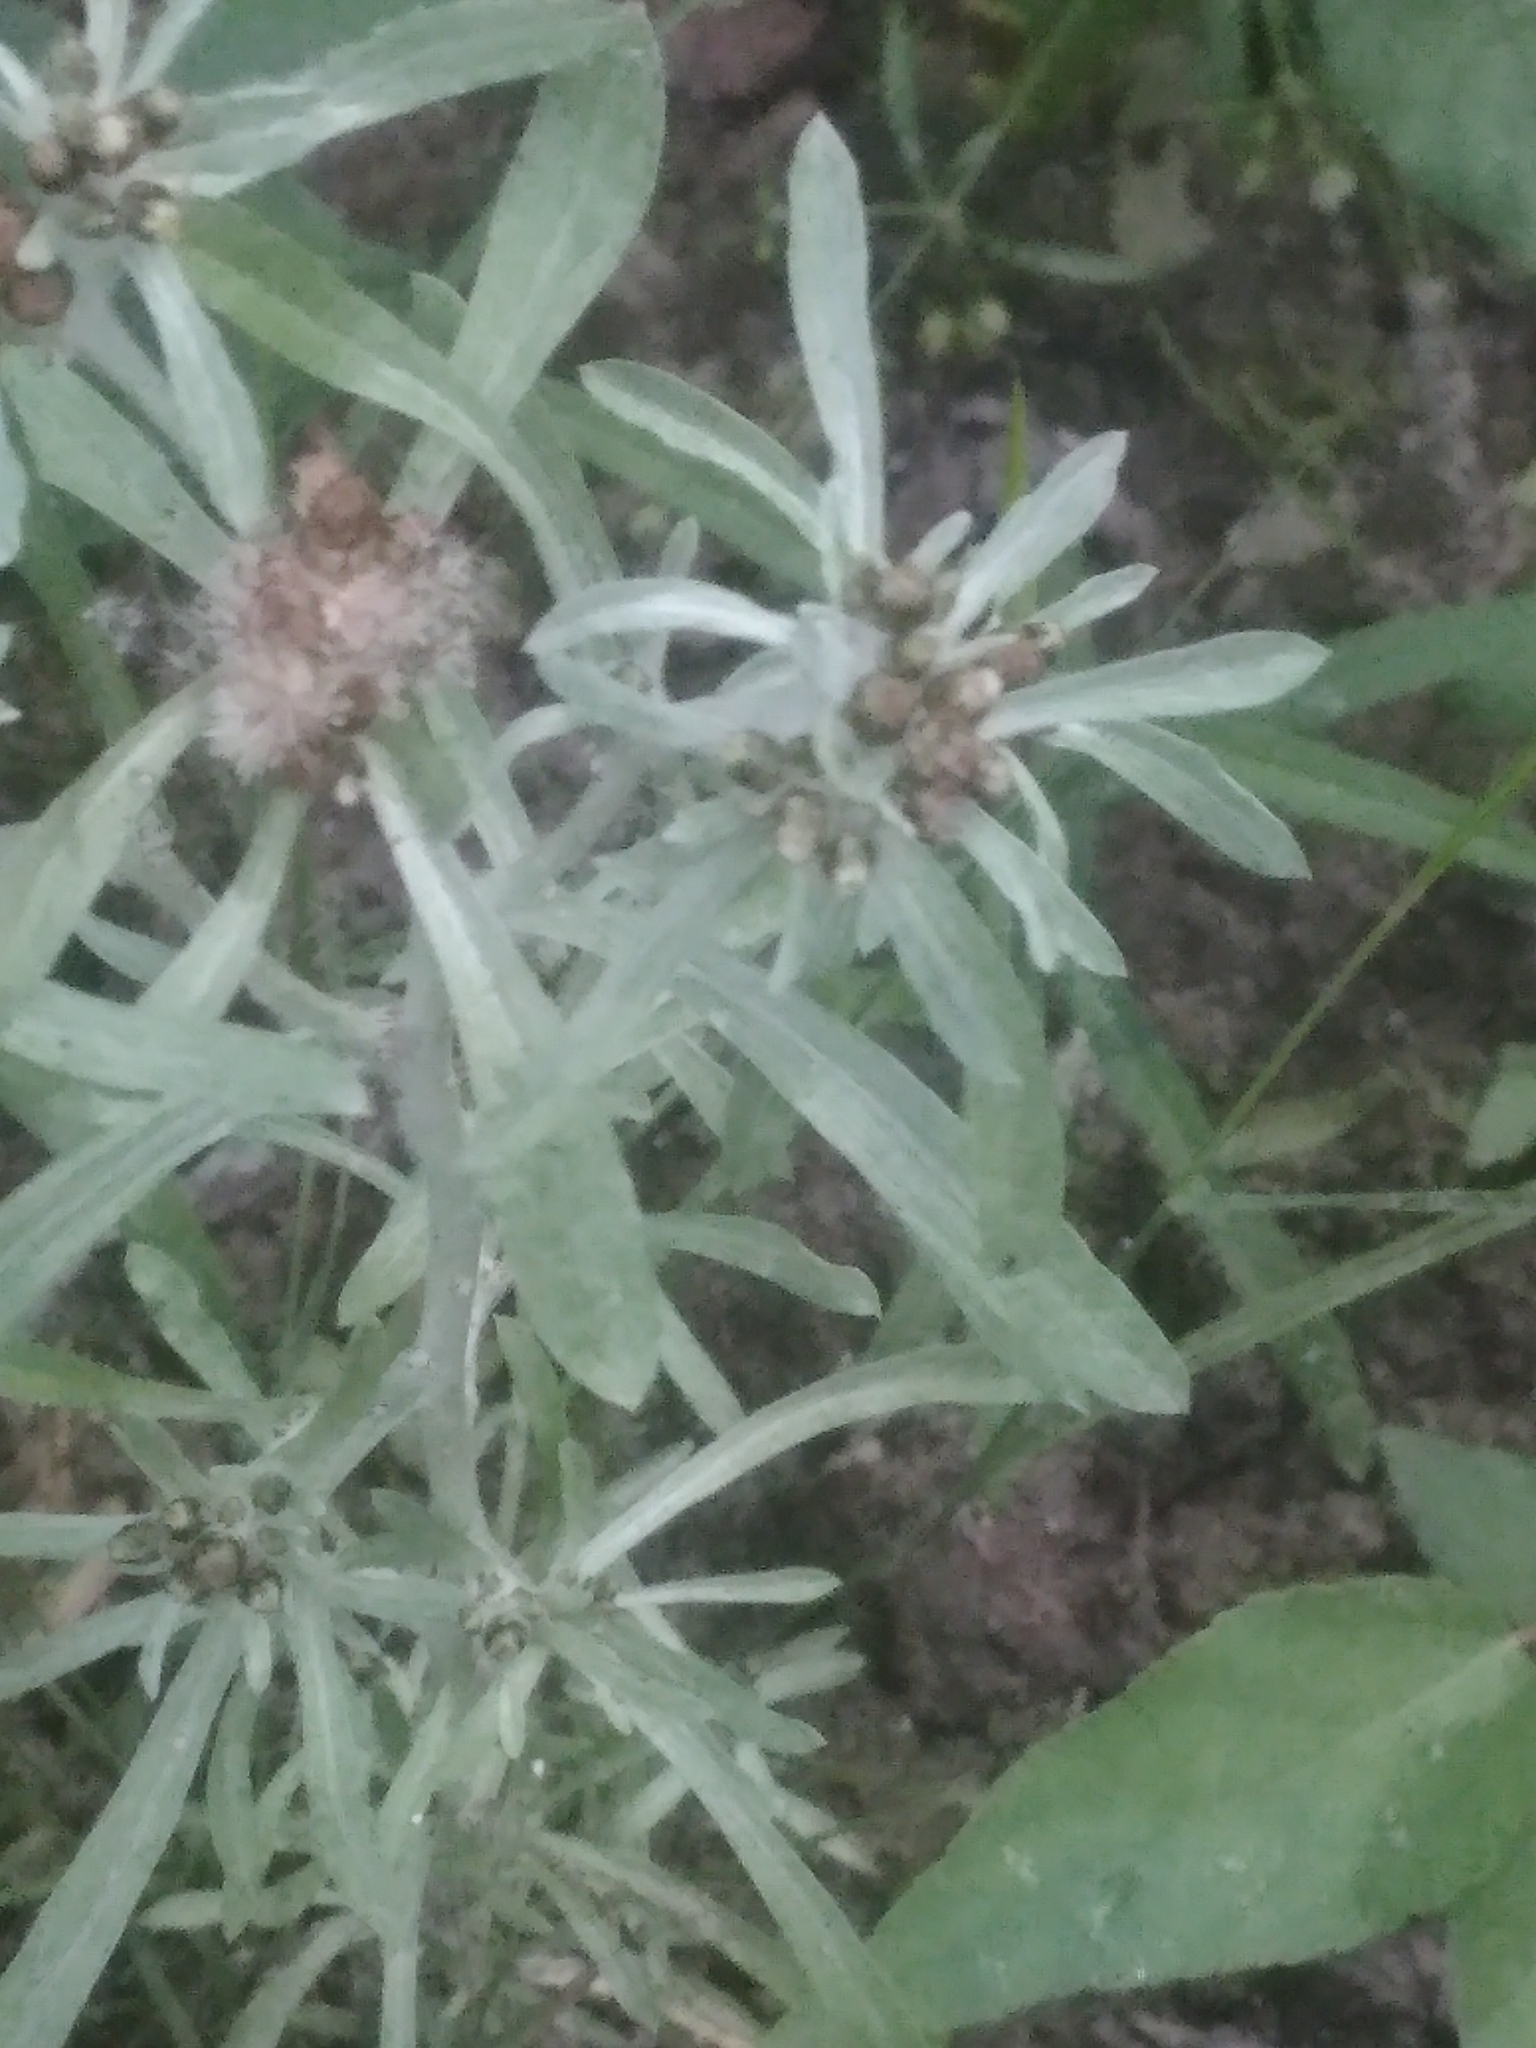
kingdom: Plantae
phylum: Tracheophyta
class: Magnoliopsida
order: Asterales
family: Asteraceae
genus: Gnaphalium
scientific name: Gnaphalium uliginosum
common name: Marsh cudweed
